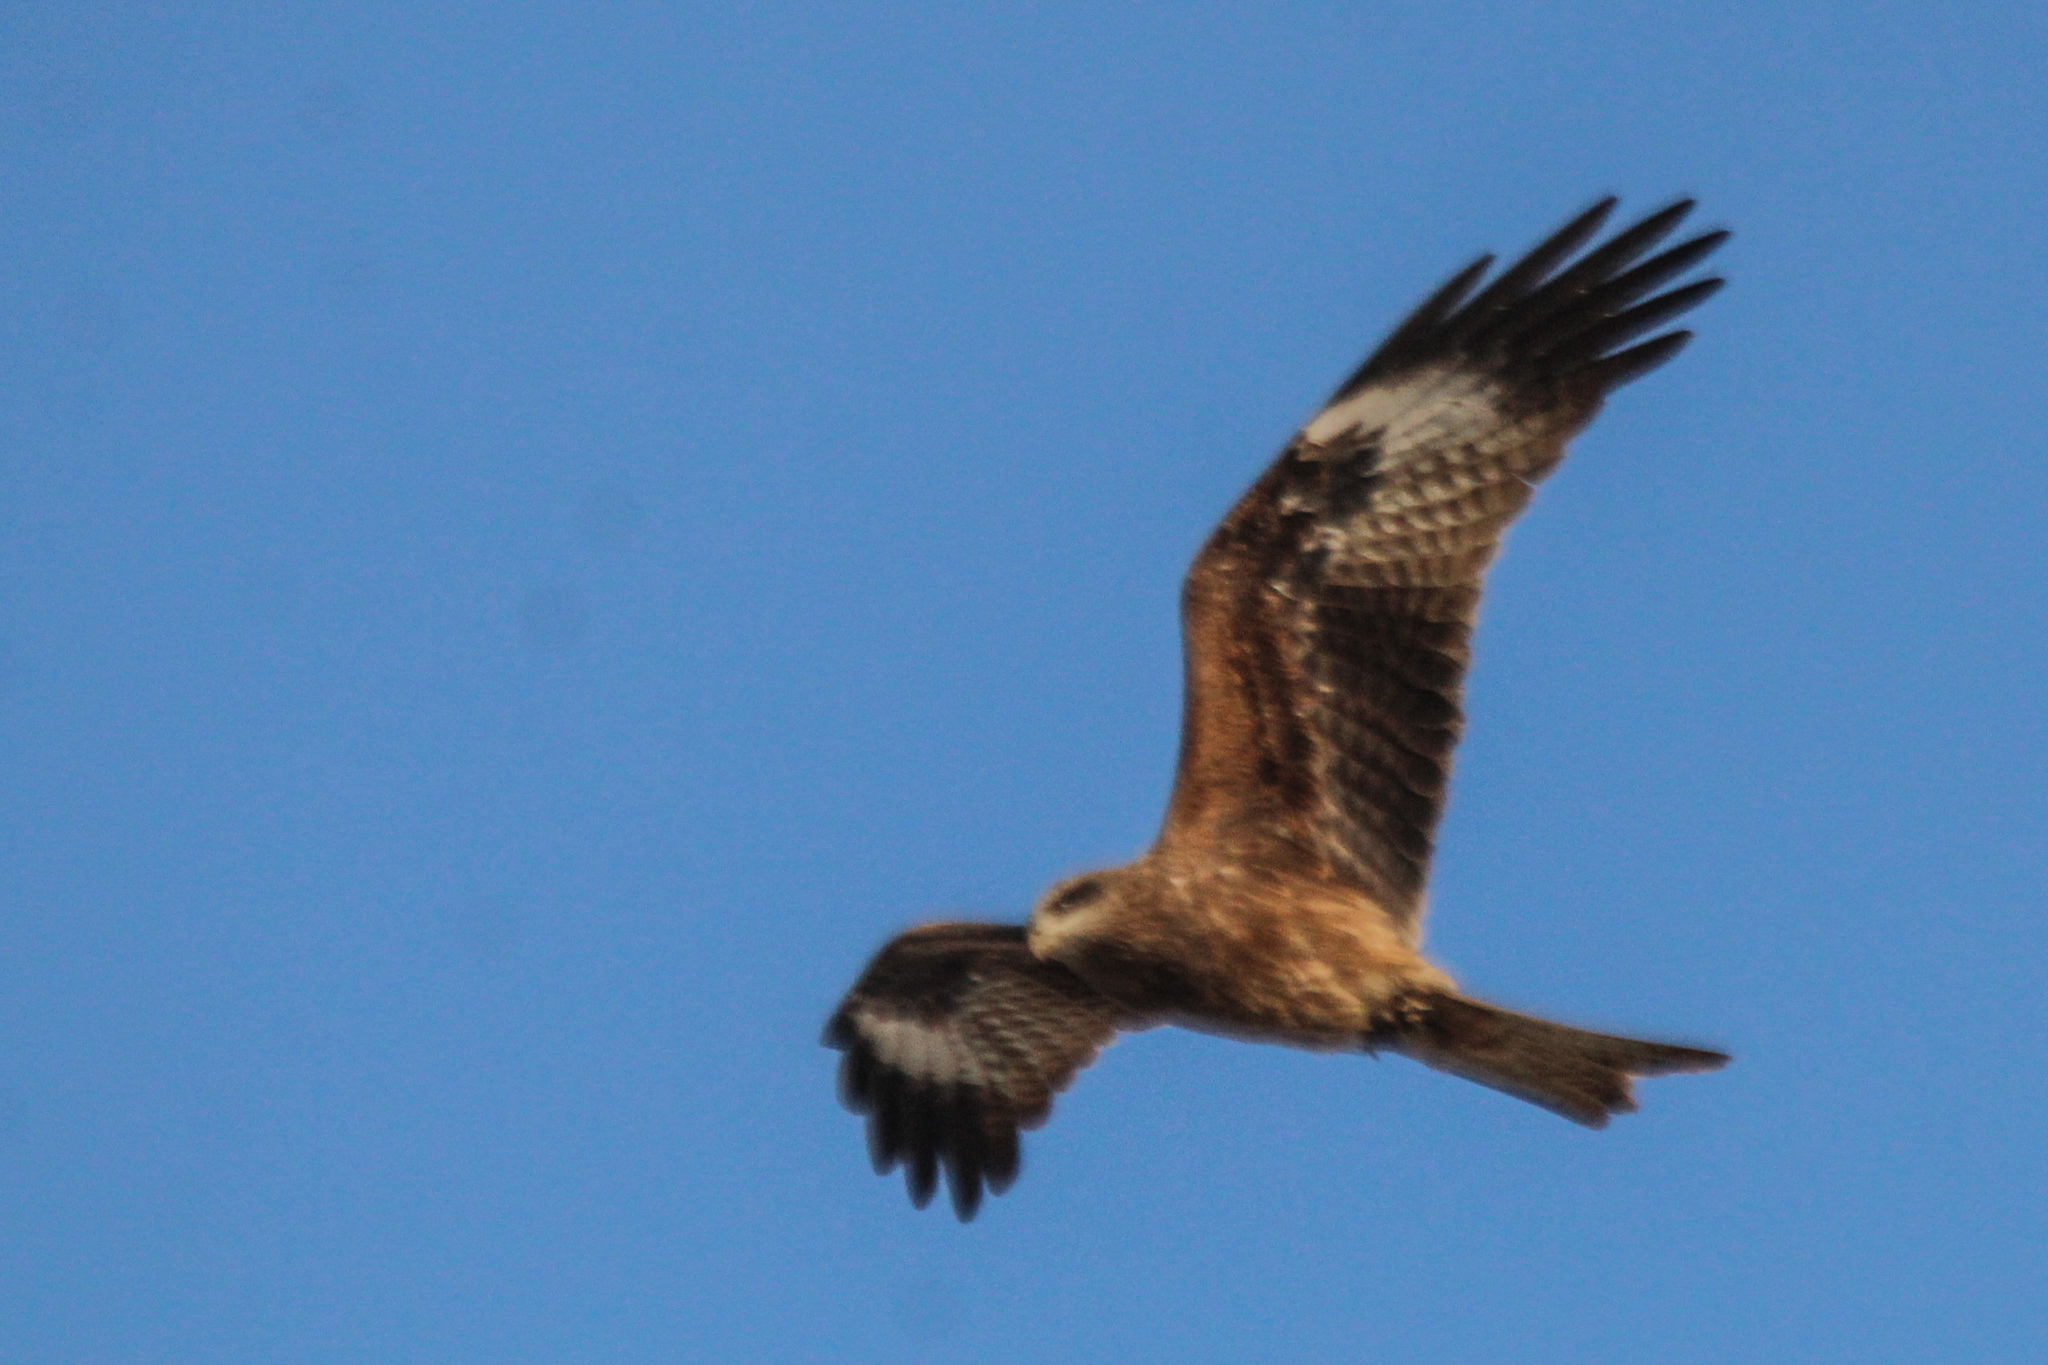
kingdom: Animalia
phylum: Chordata
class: Aves
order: Accipitriformes
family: Accipitridae
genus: Milvus
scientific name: Milvus migrans
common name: Black kite
